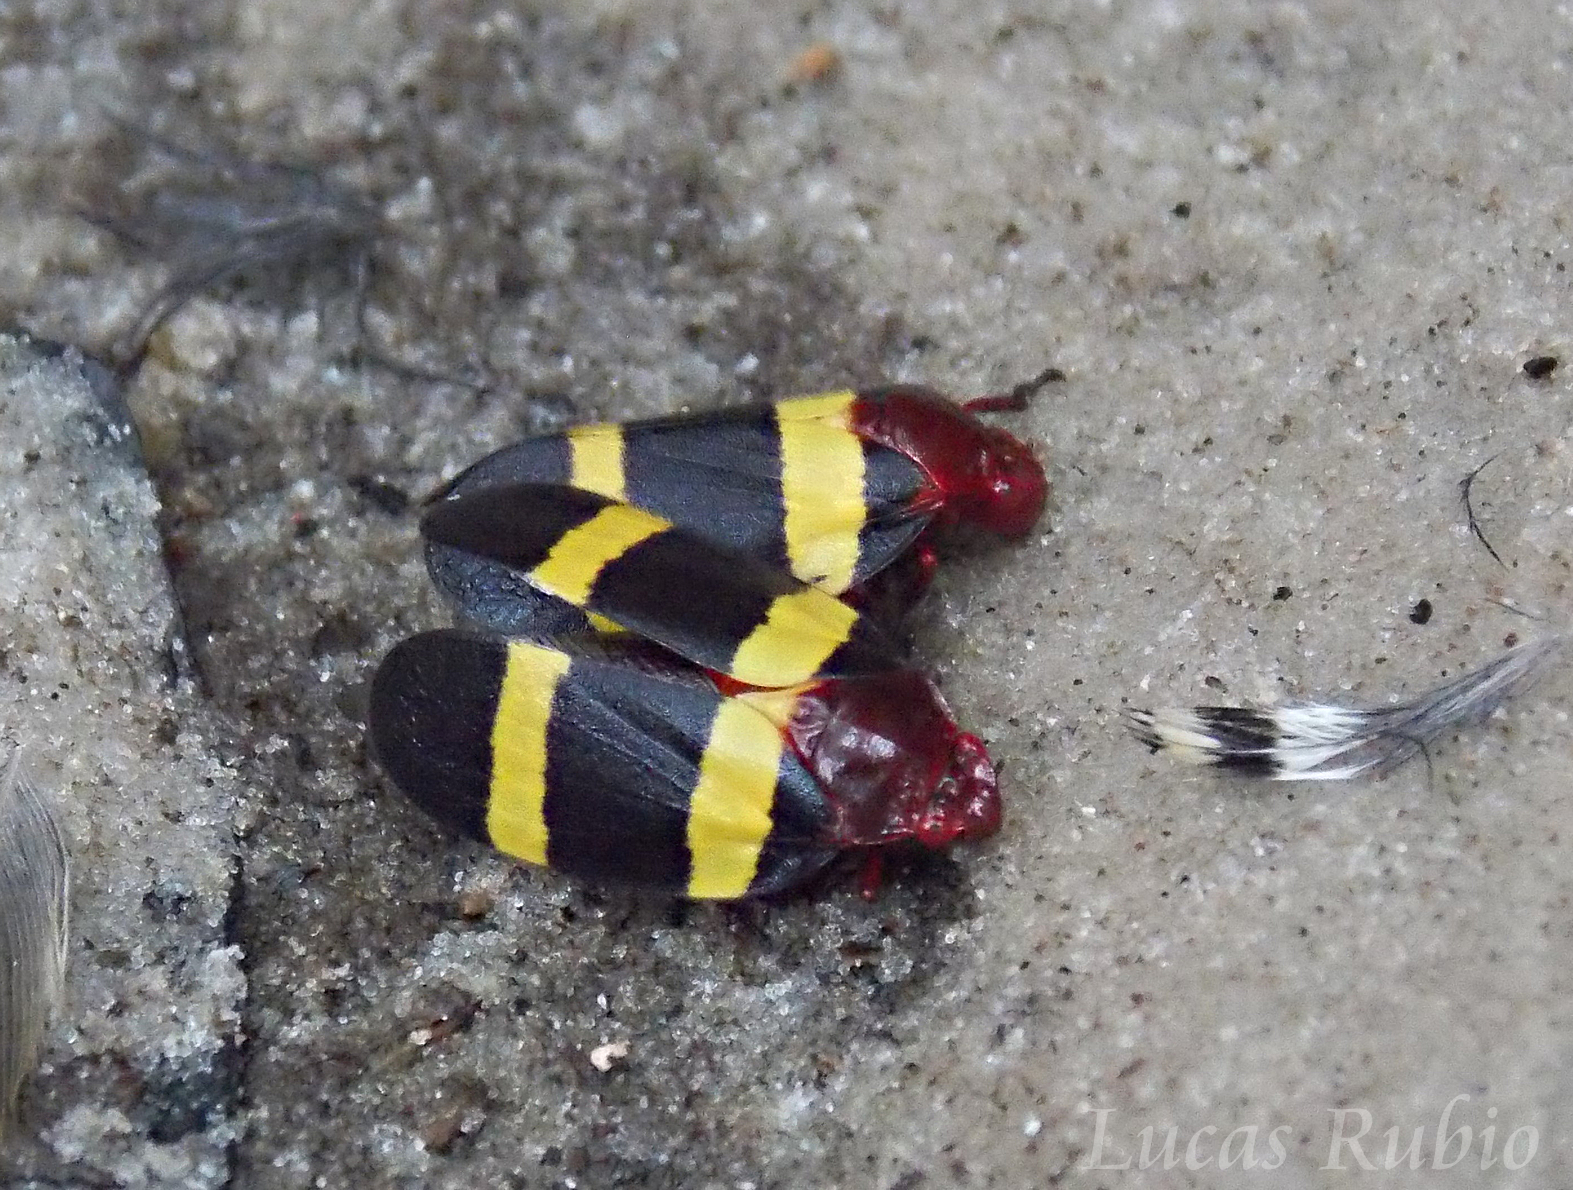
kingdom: Animalia
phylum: Arthropoda
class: Insecta
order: Hemiptera
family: Cercopidae
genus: Sphenorhina
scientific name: Sphenorhina rubra
